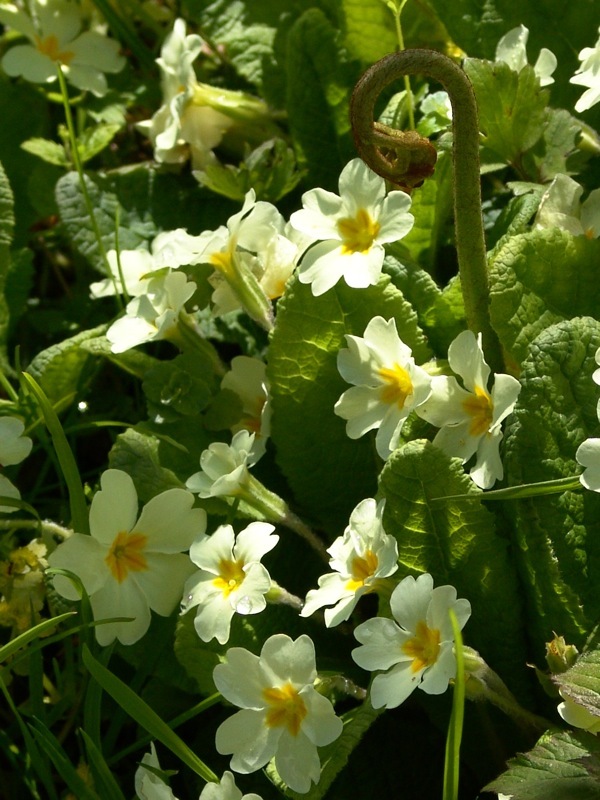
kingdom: Plantae
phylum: Tracheophyta
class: Magnoliopsida
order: Ericales
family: Primulaceae
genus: Primula
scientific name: Primula vulgaris
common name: Primrose
